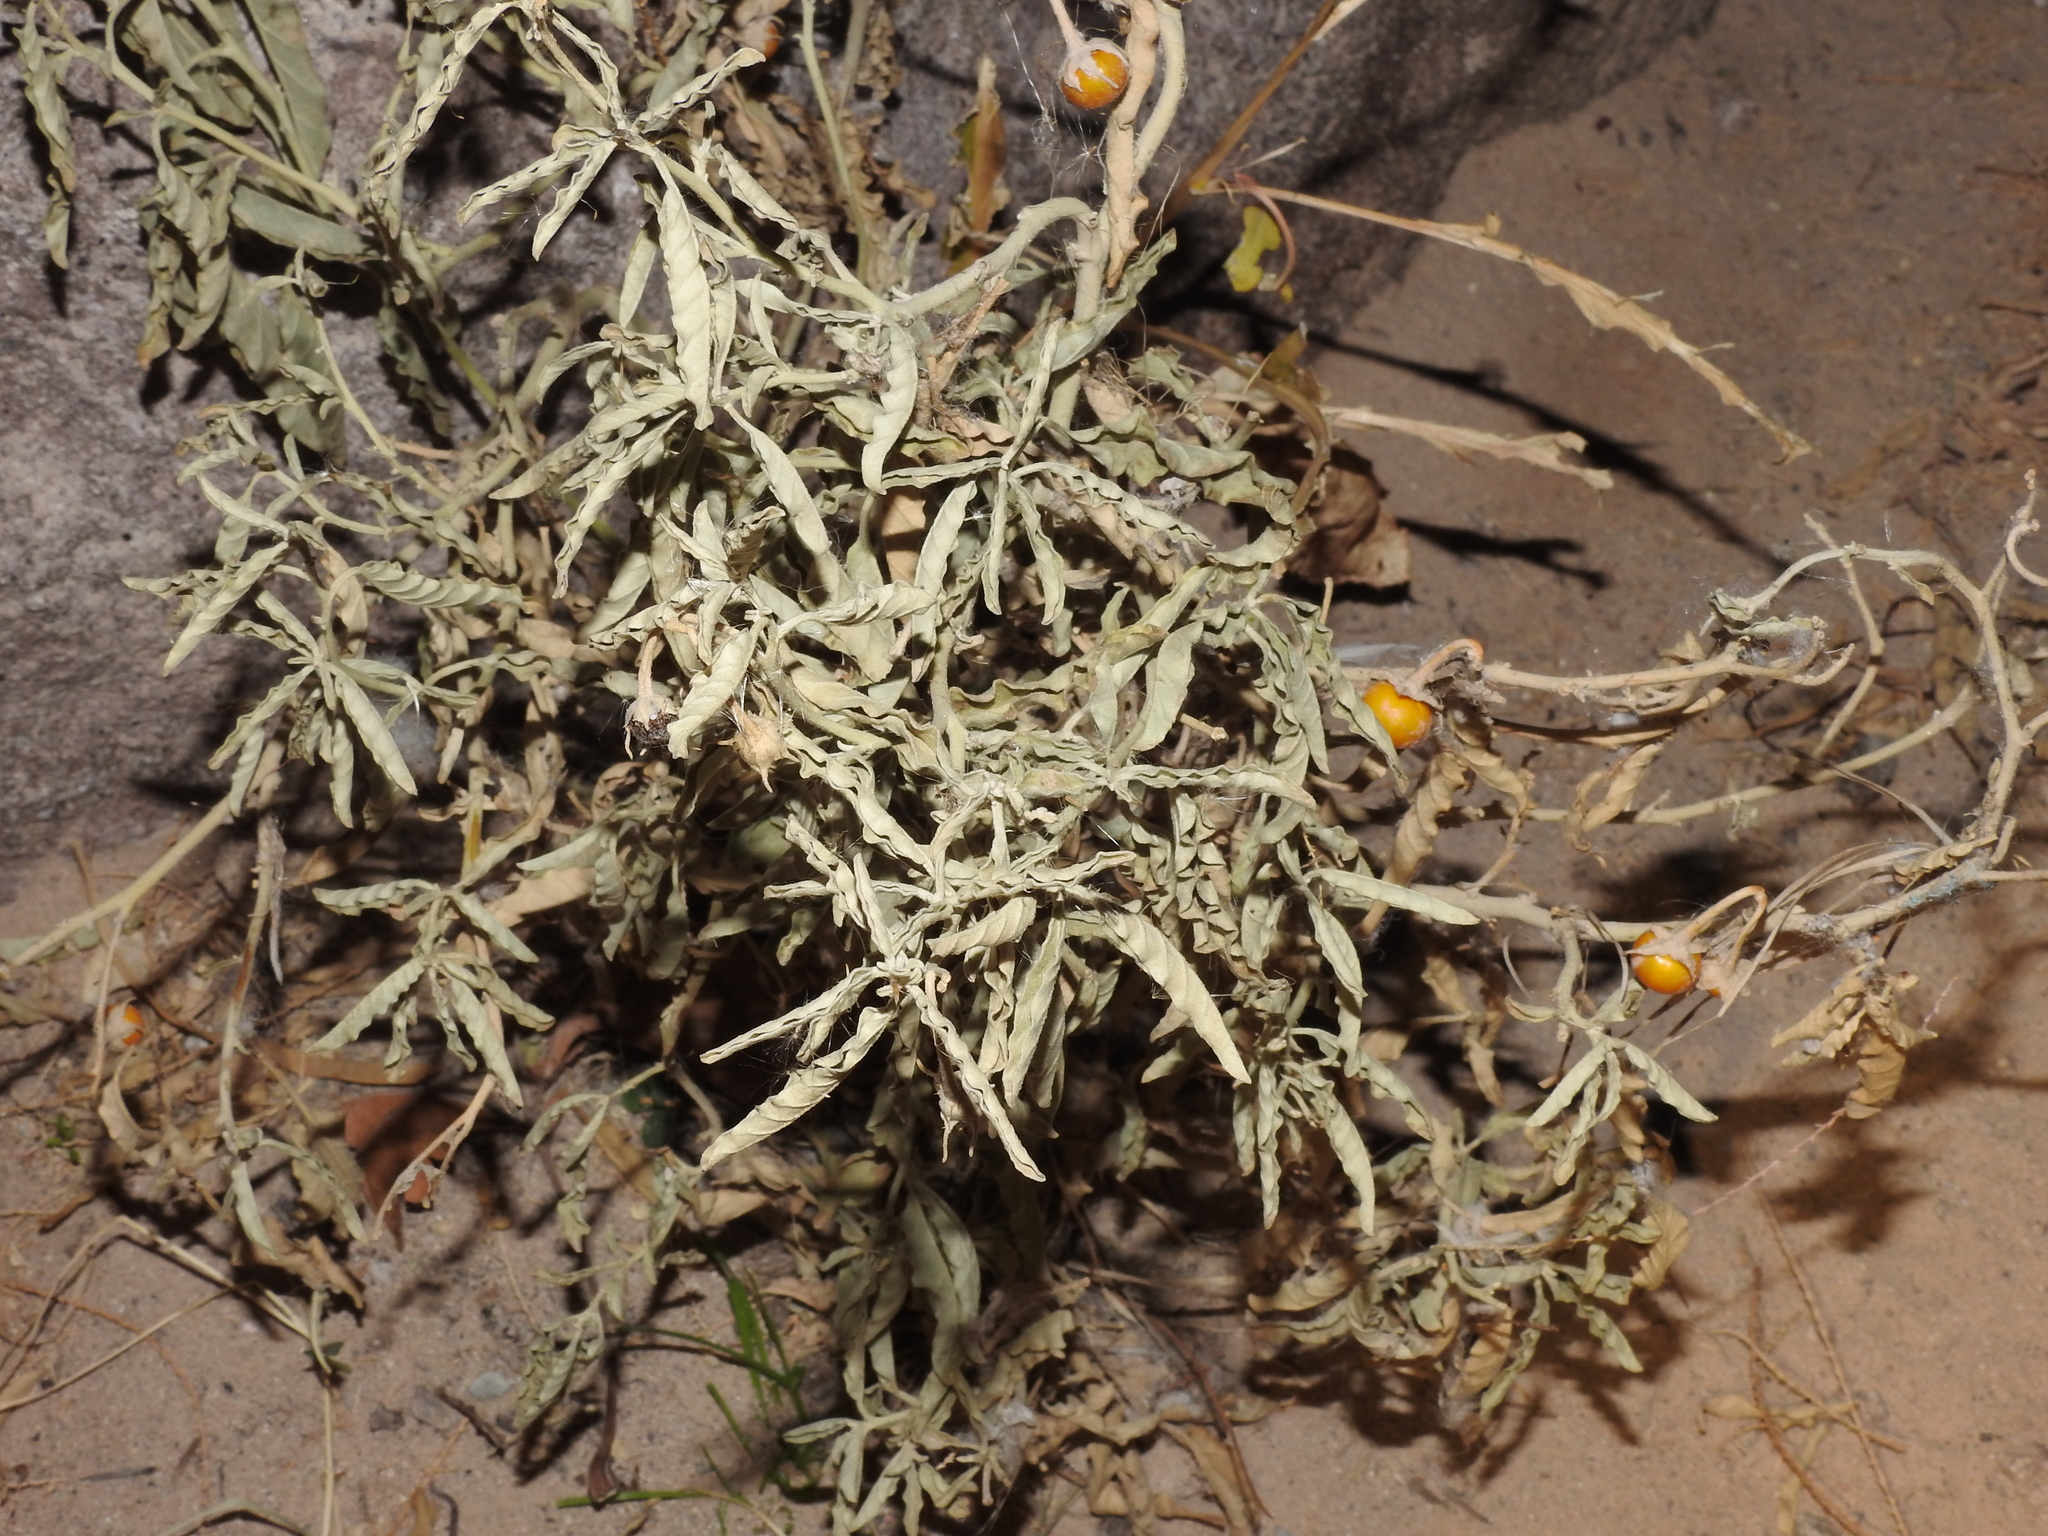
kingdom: Plantae
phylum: Tracheophyta
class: Magnoliopsida
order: Solanales
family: Solanaceae
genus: Solanum
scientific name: Solanum elaeagnifolium
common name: Silverleaf nightshade
